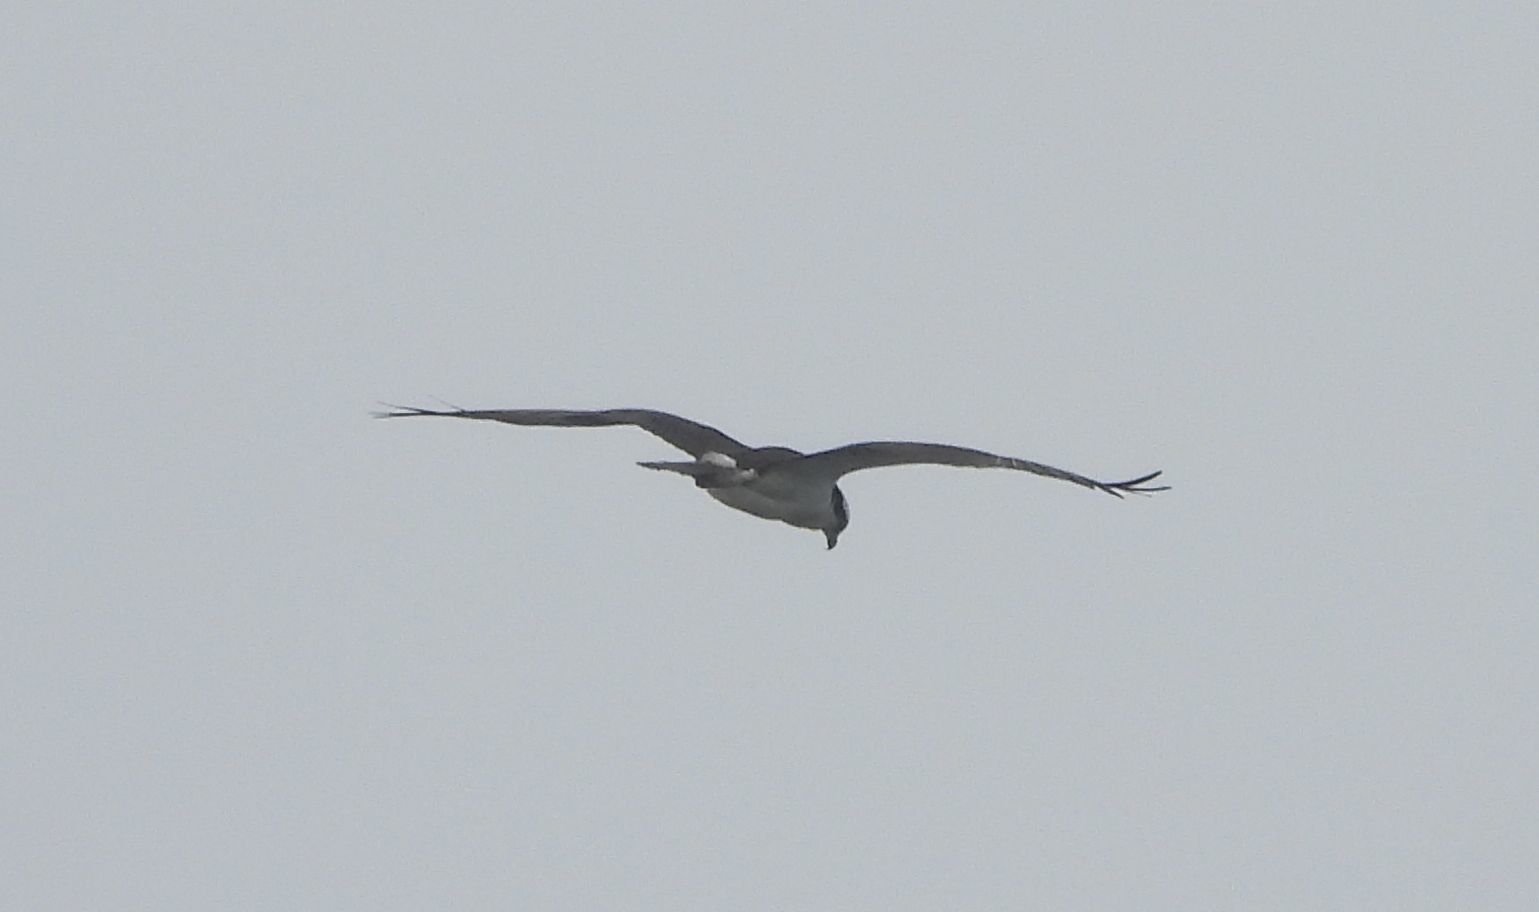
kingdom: Animalia
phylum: Chordata
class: Aves
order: Accipitriformes
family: Pandionidae
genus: Pandion
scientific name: Pandion haliaetus
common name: Osprey
